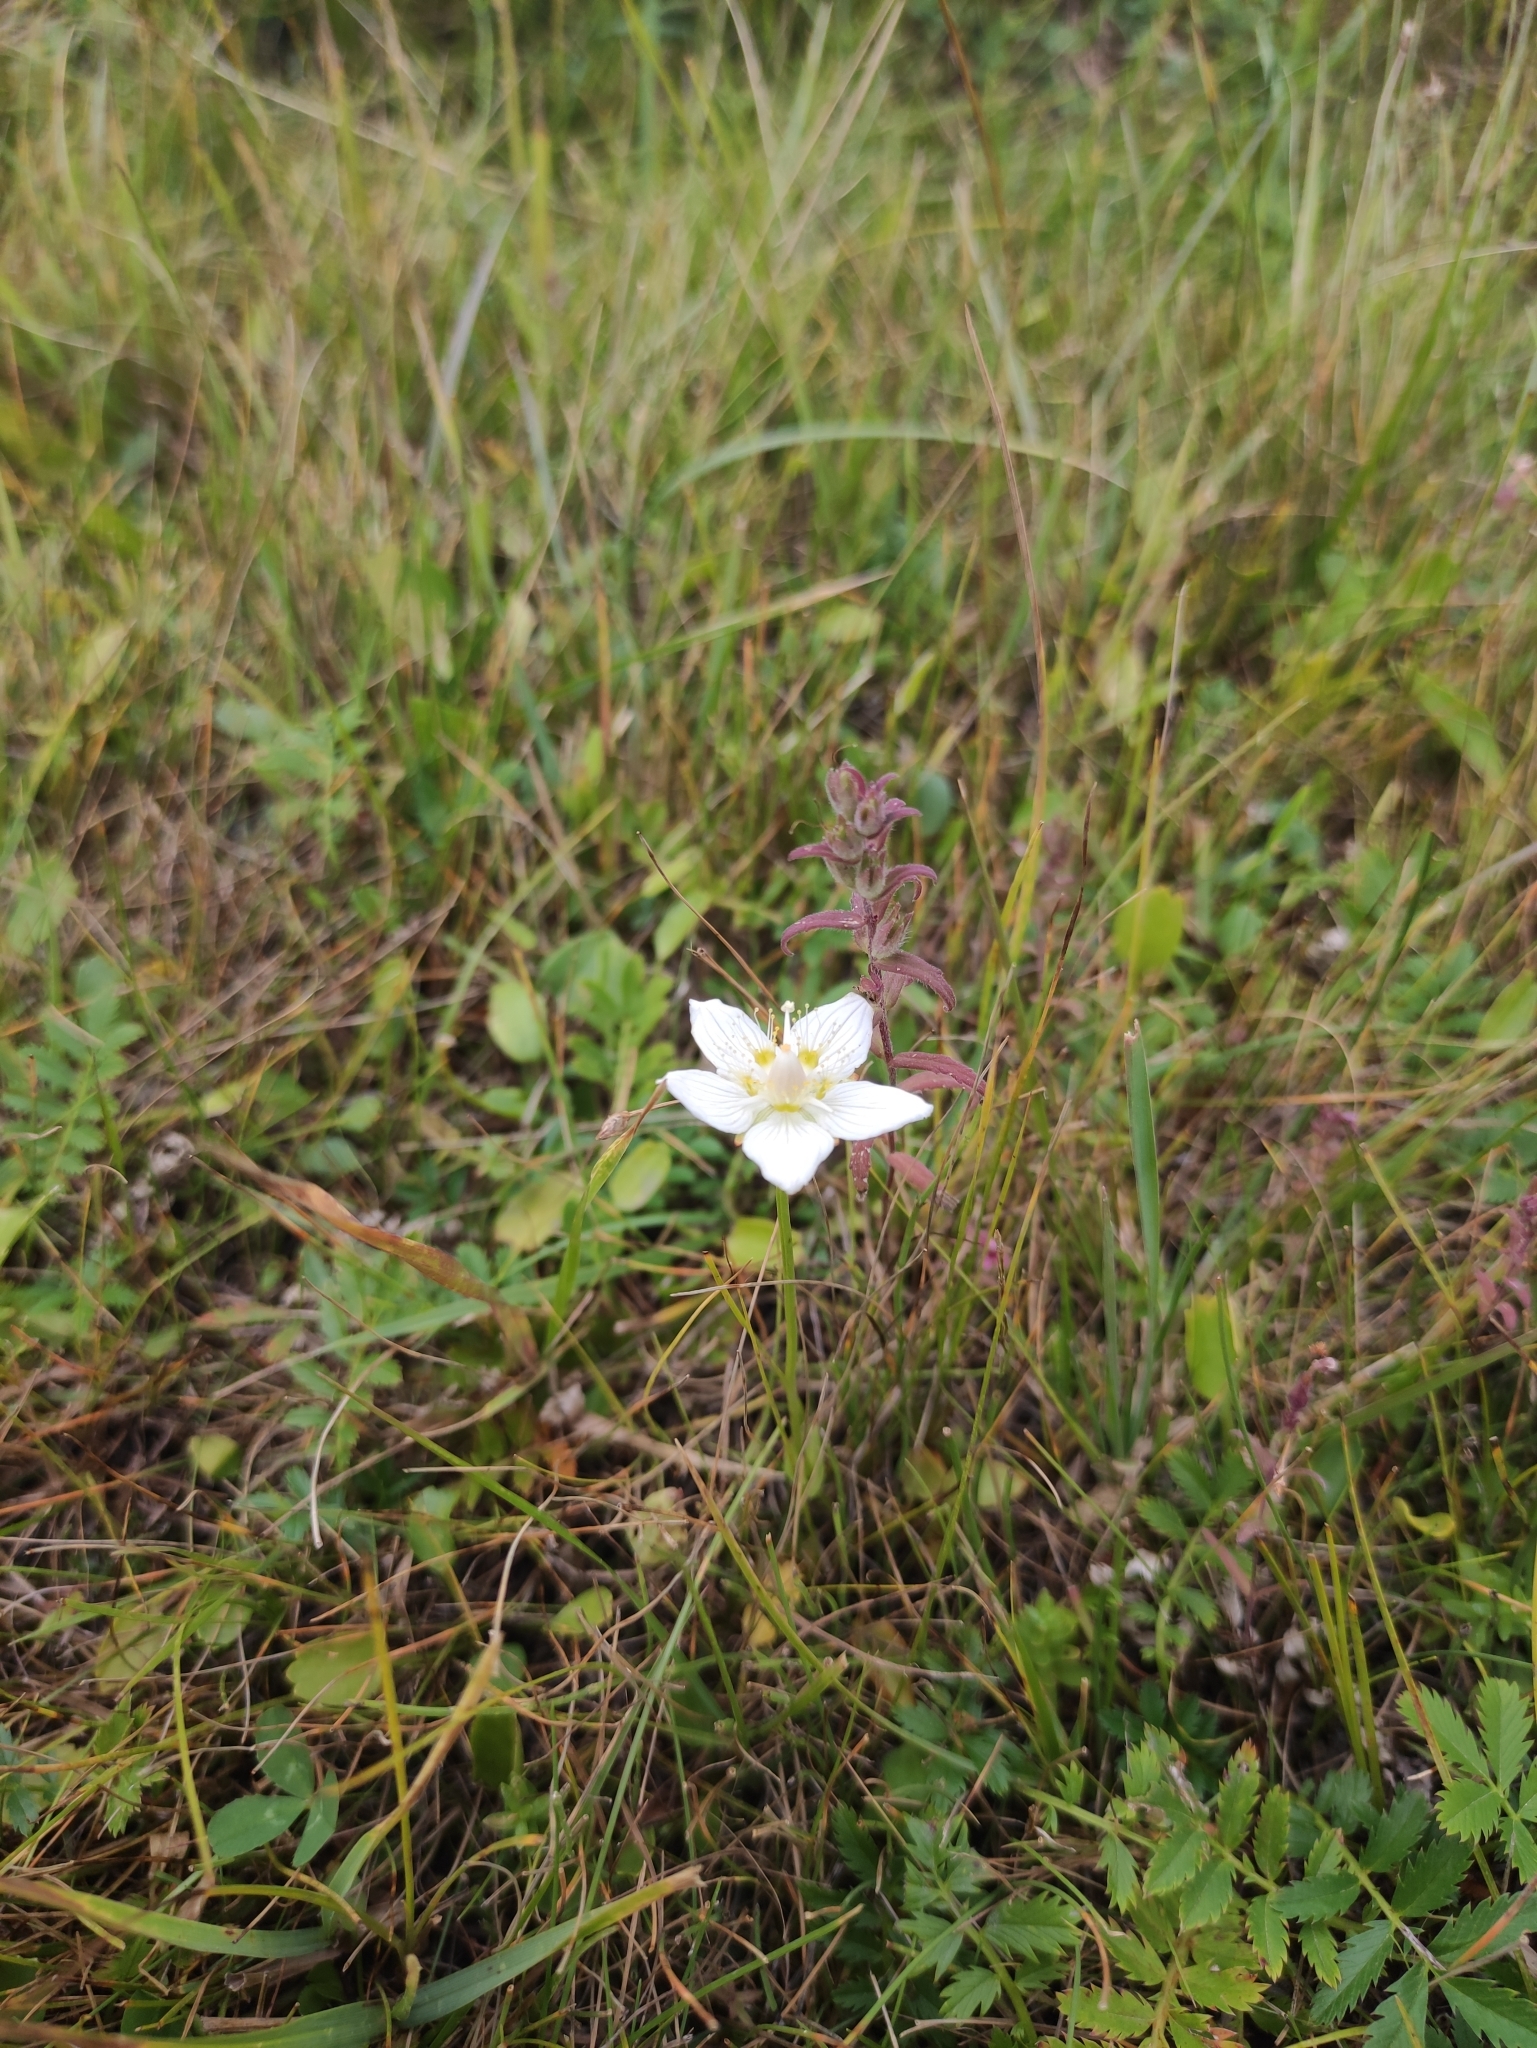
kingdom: Plantae
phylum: Tracheophyta
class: Magnoliopsida
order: Celastrales
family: Parnassiaceae
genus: Parnassia
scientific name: Parnassia palustris
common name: Grass-of-parnassus
